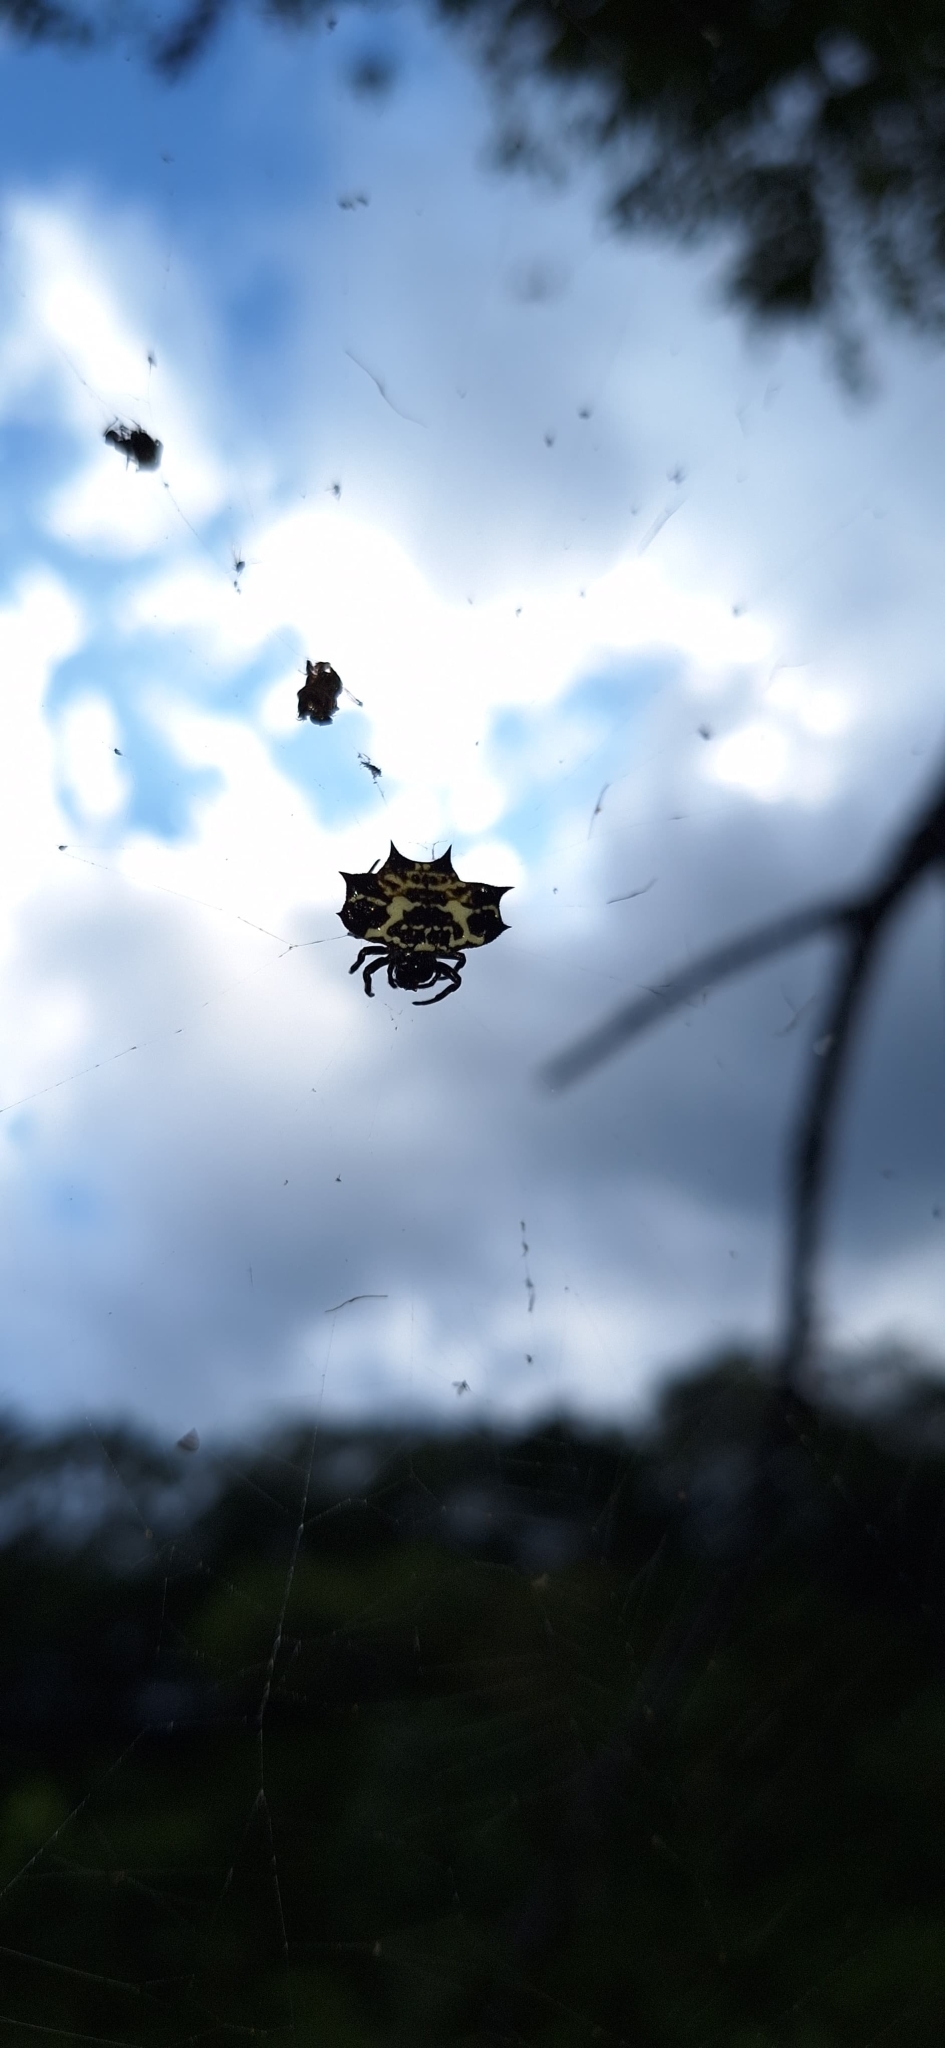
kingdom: Animalia
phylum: Arthropoda
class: Arachnida
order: Araneae
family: Araneidae
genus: Gasteracantha
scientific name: Gasteracantha cancriformis
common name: Orb weavers
